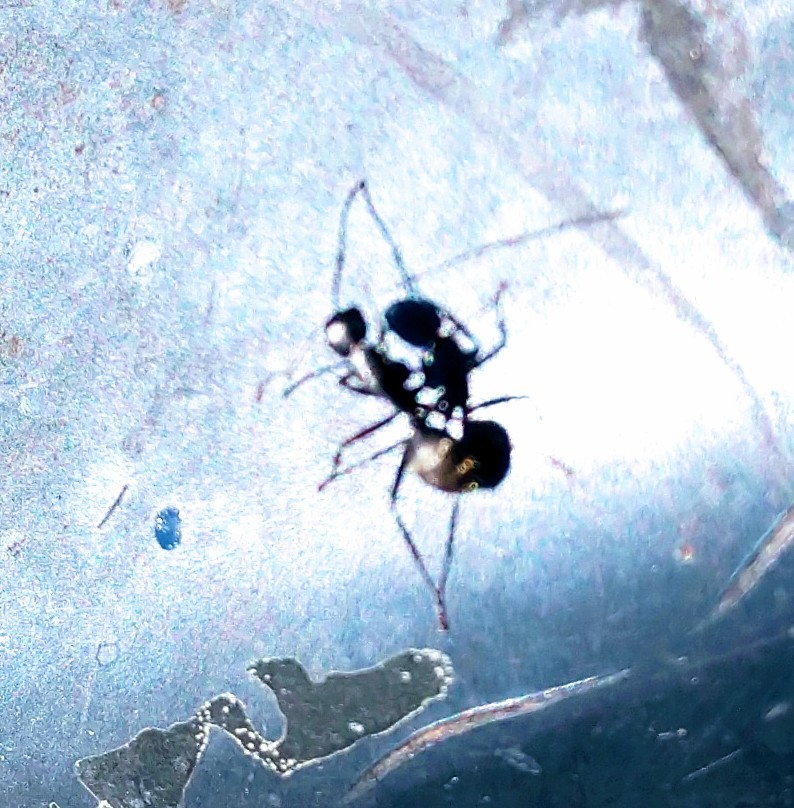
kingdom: Animalia
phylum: Arthropoda
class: Insecta
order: Hymenoptera
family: Formicidae
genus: Camponotus
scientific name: Camponotus pennsylvanicus
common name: Black carpenter ant
